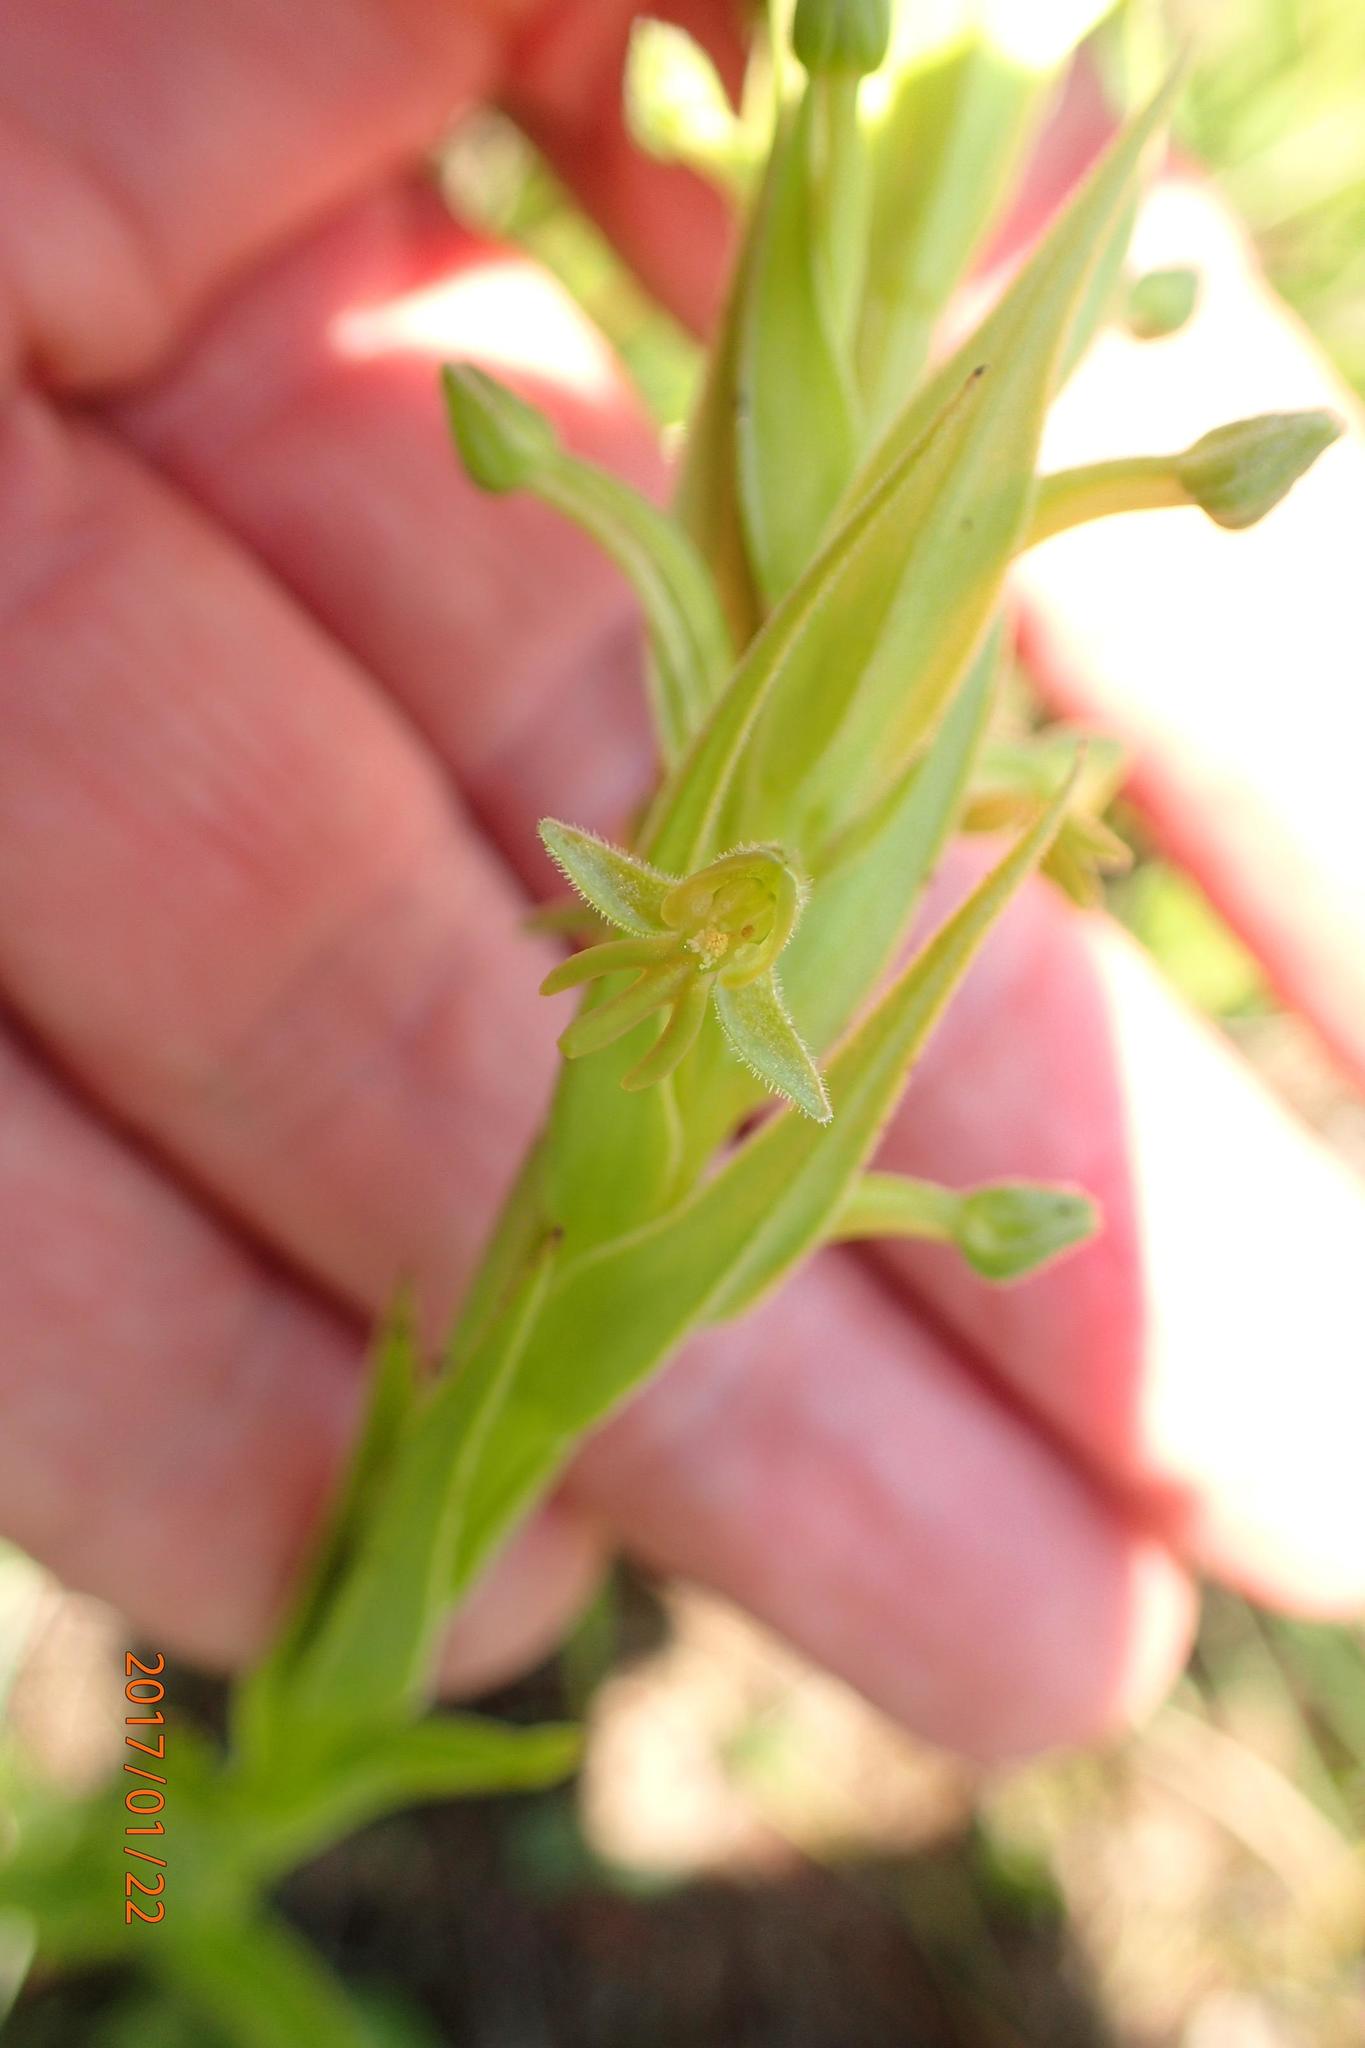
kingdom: Plantae
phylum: Tracheophyta
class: Liliopsida
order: Asparagales
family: Orchidaceae
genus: Habenaria
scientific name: Habenaria pseudociliosa
